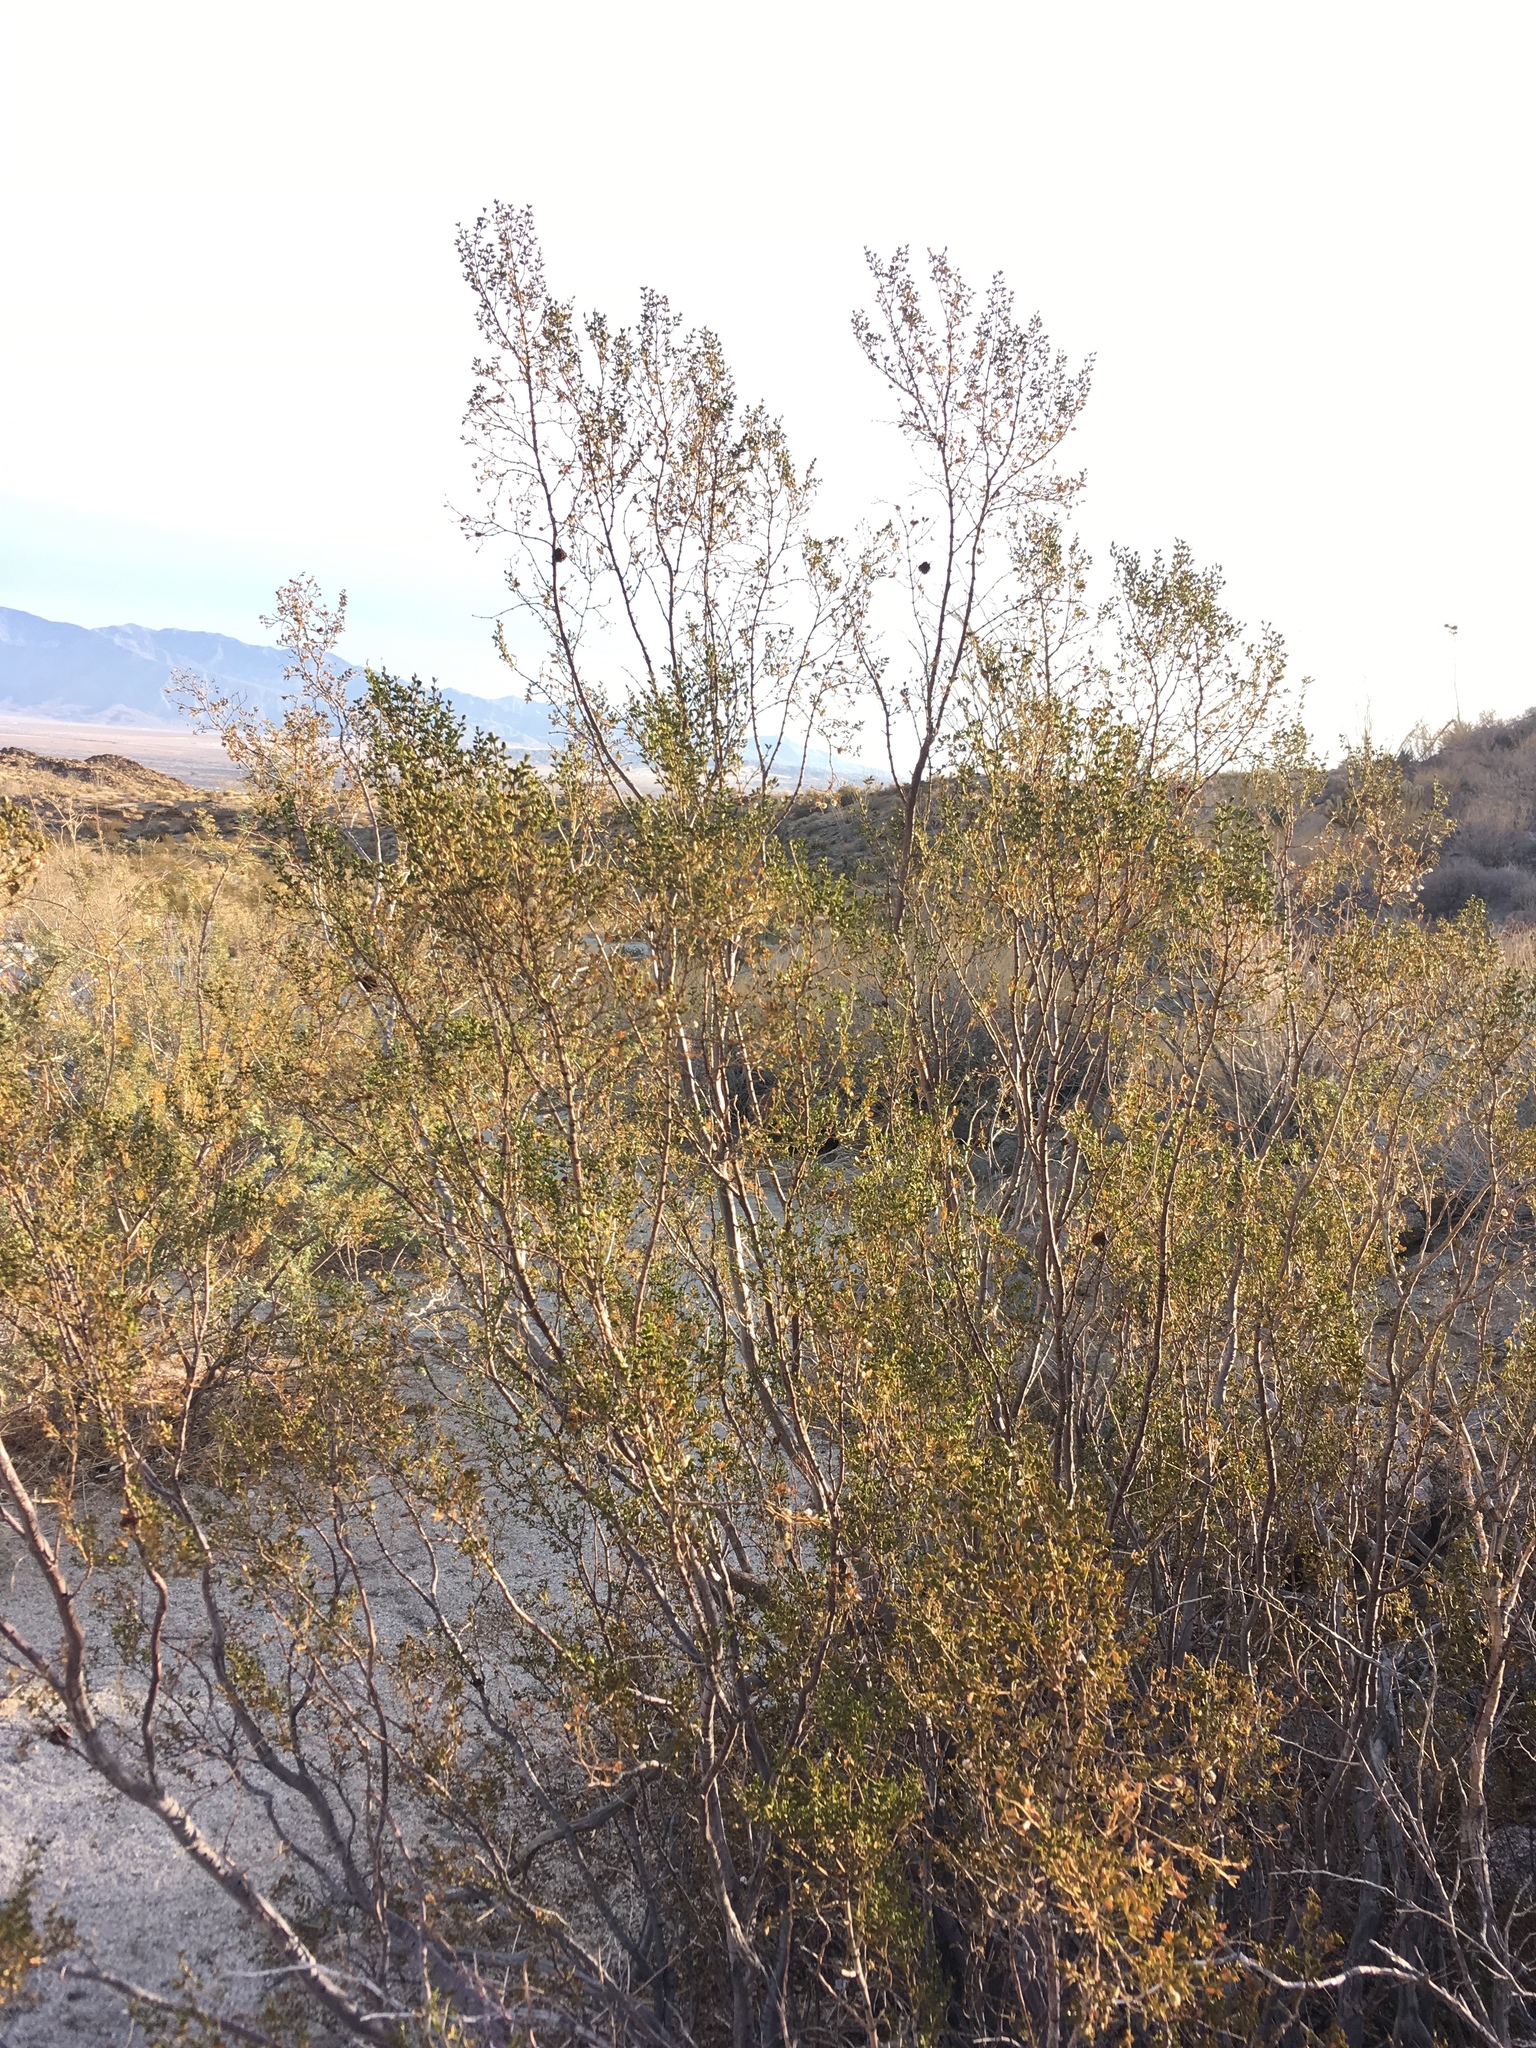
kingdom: Plantae
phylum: Tracheophyta
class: Magnoliopsida
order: Zygophyllales
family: Zygophyllaceae
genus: Larrea
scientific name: Larrea tridentata
